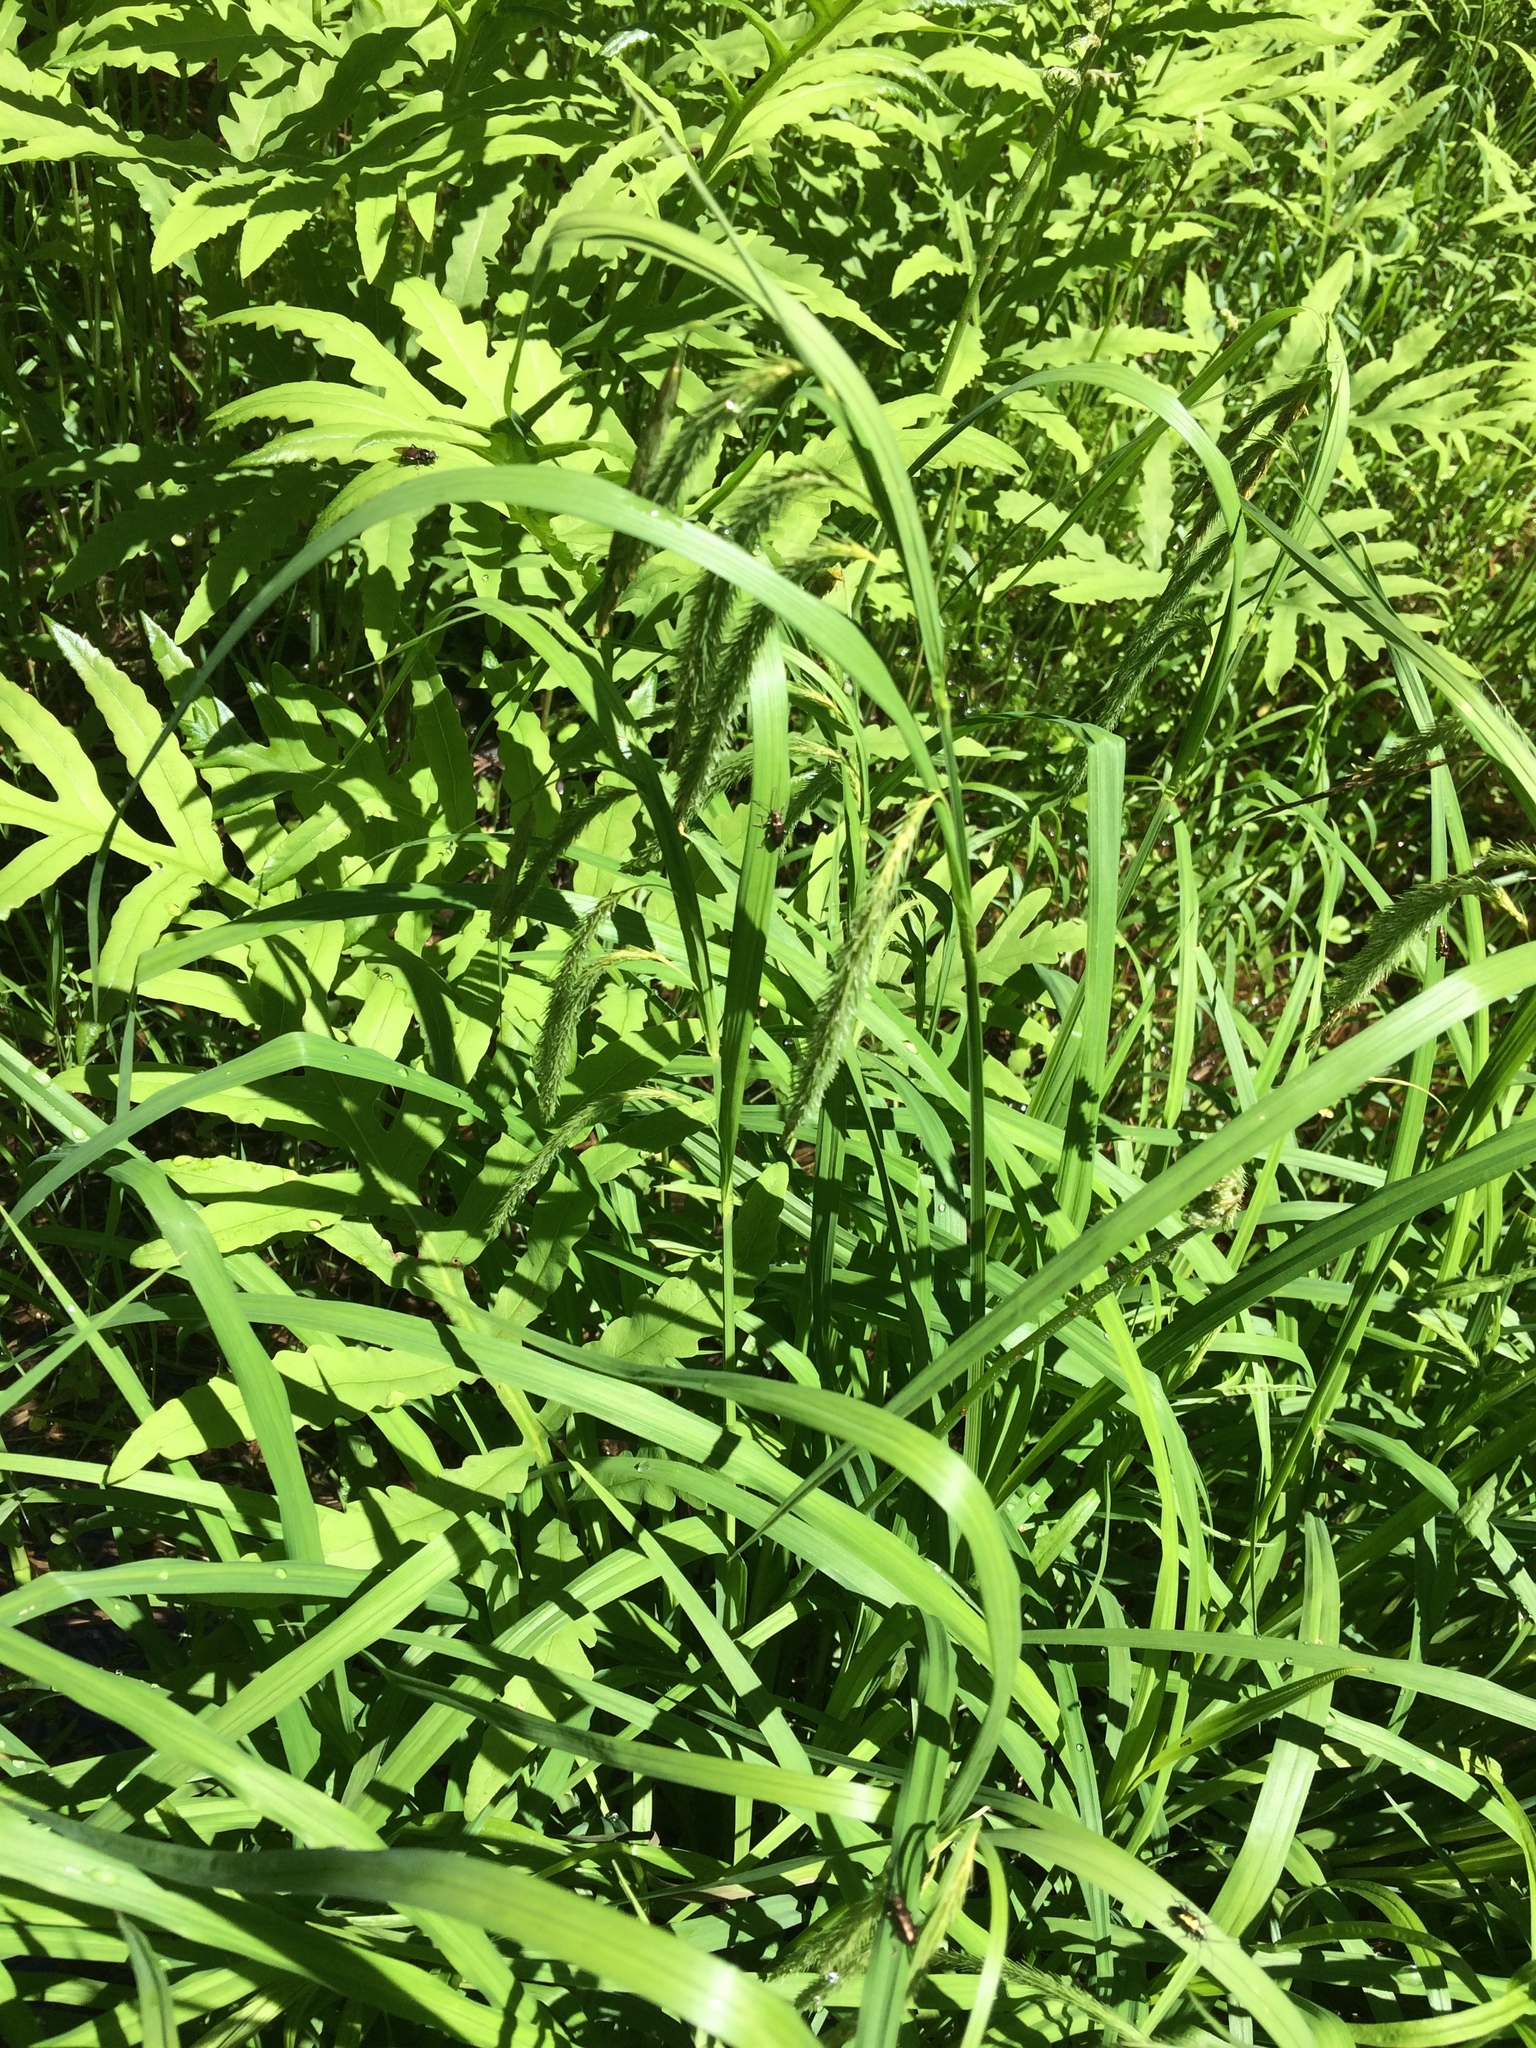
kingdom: Plantae
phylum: Tracheophyta
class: Liliopsida
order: Poales
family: Cyperaceae
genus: Carex
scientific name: Carex gynandra
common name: Nodding sedge
